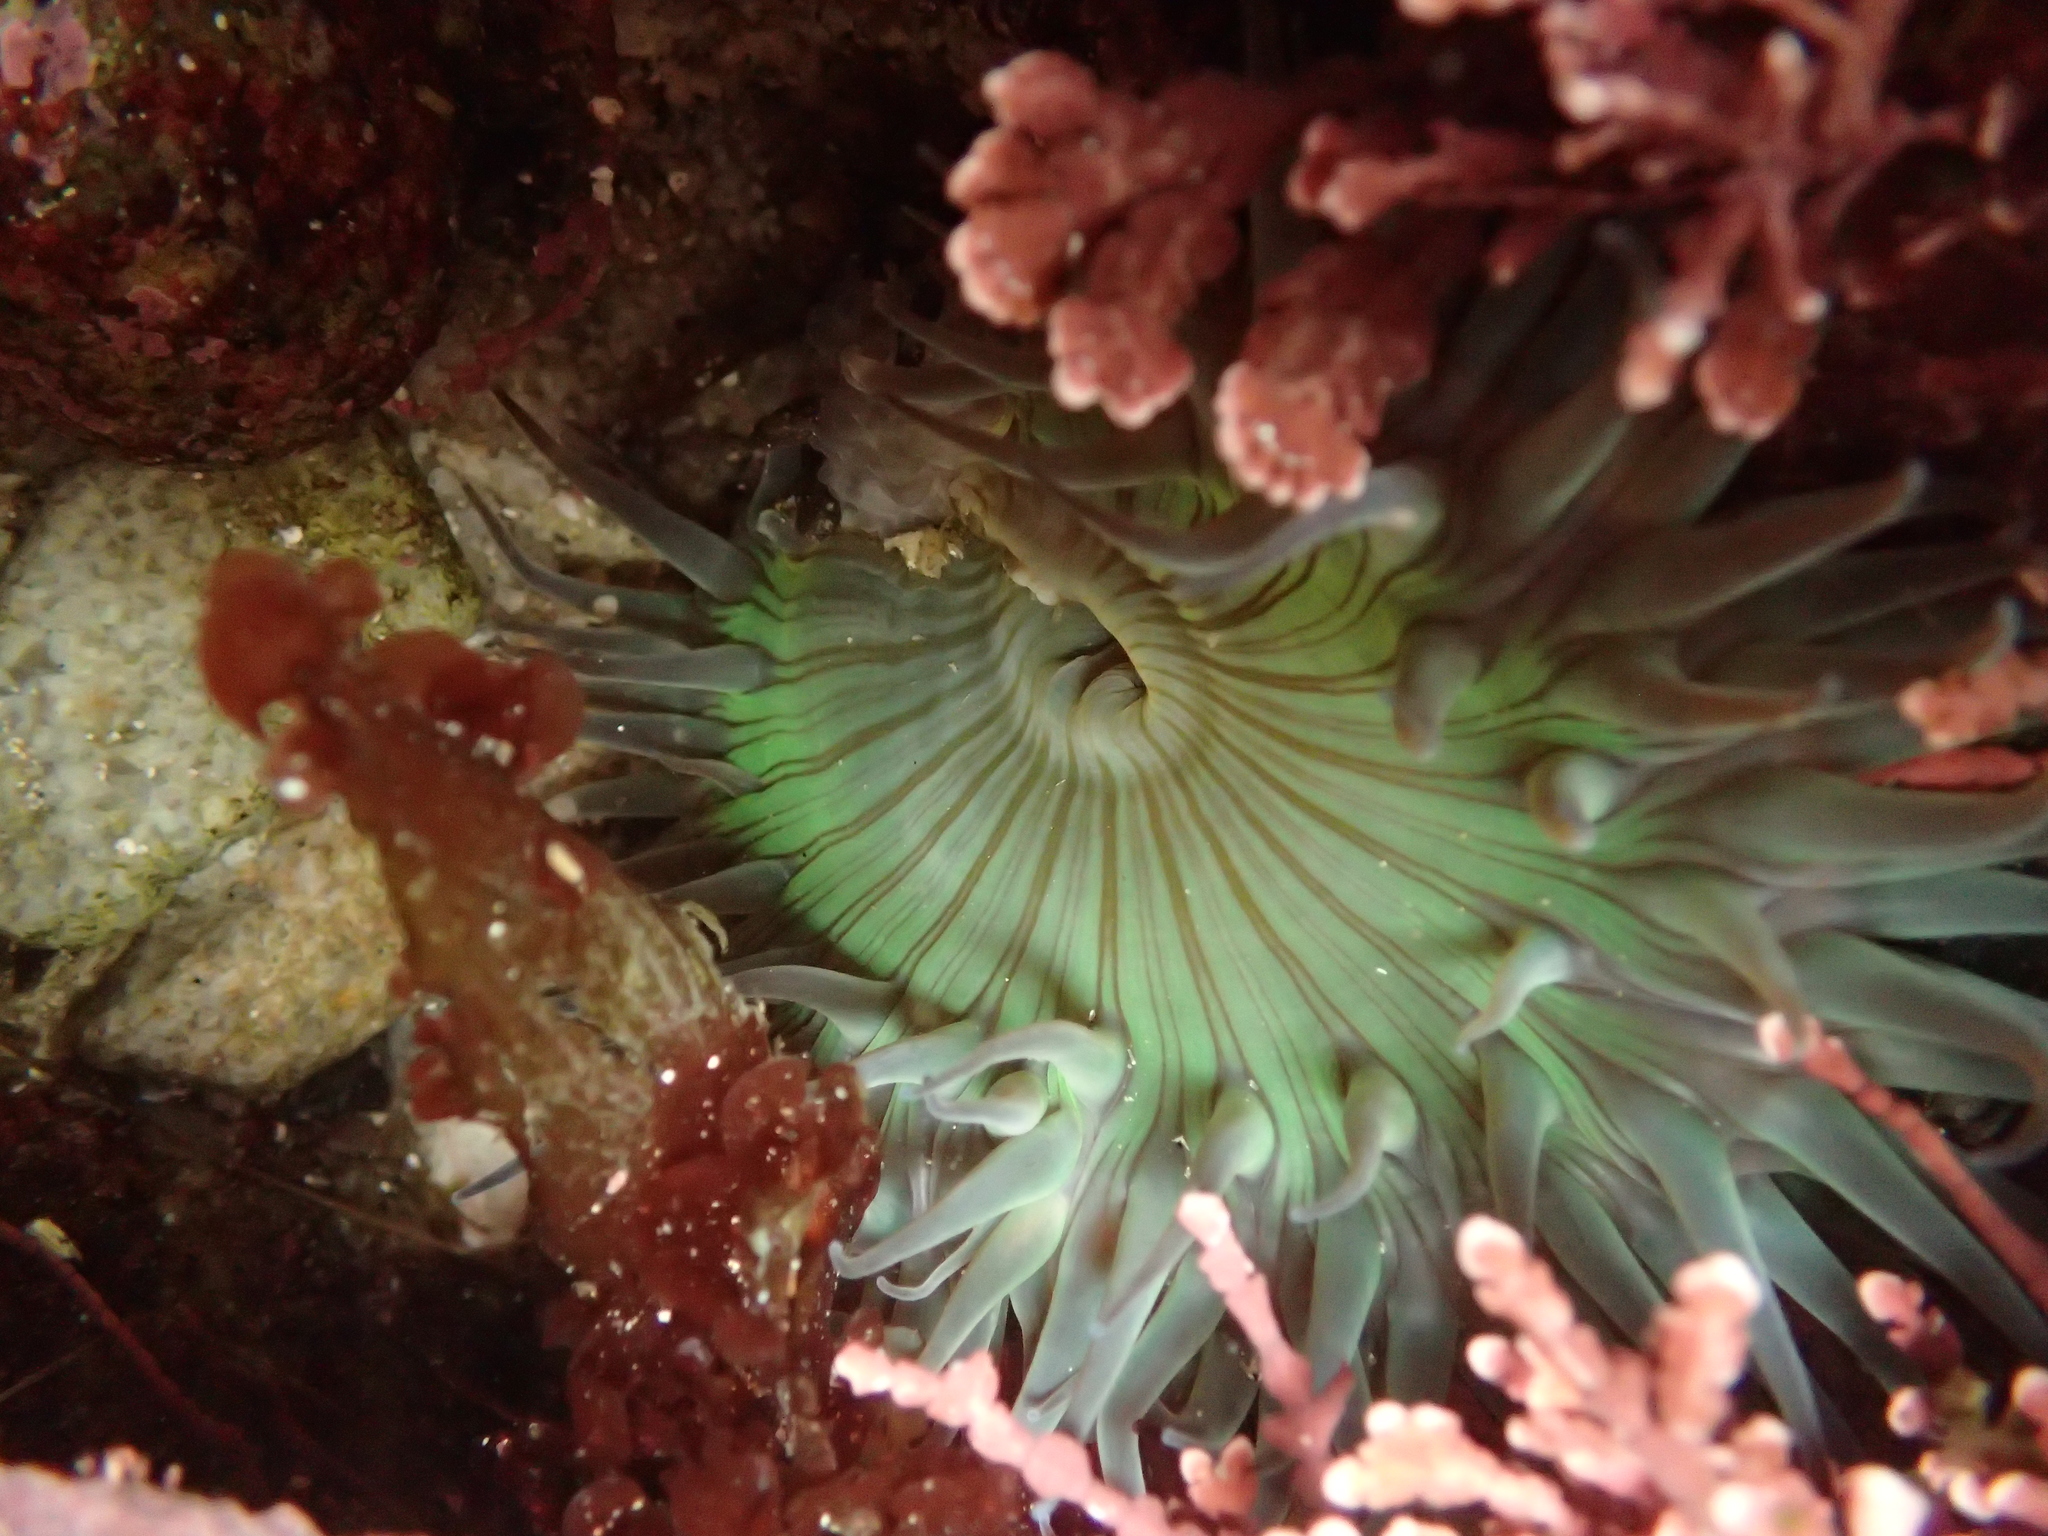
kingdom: Animalia
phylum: Cnidaria
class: Anthozoa
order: Actiniaria
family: Actiniidae
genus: Anthopleura
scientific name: Anthopleura sola
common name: Sun anemone
